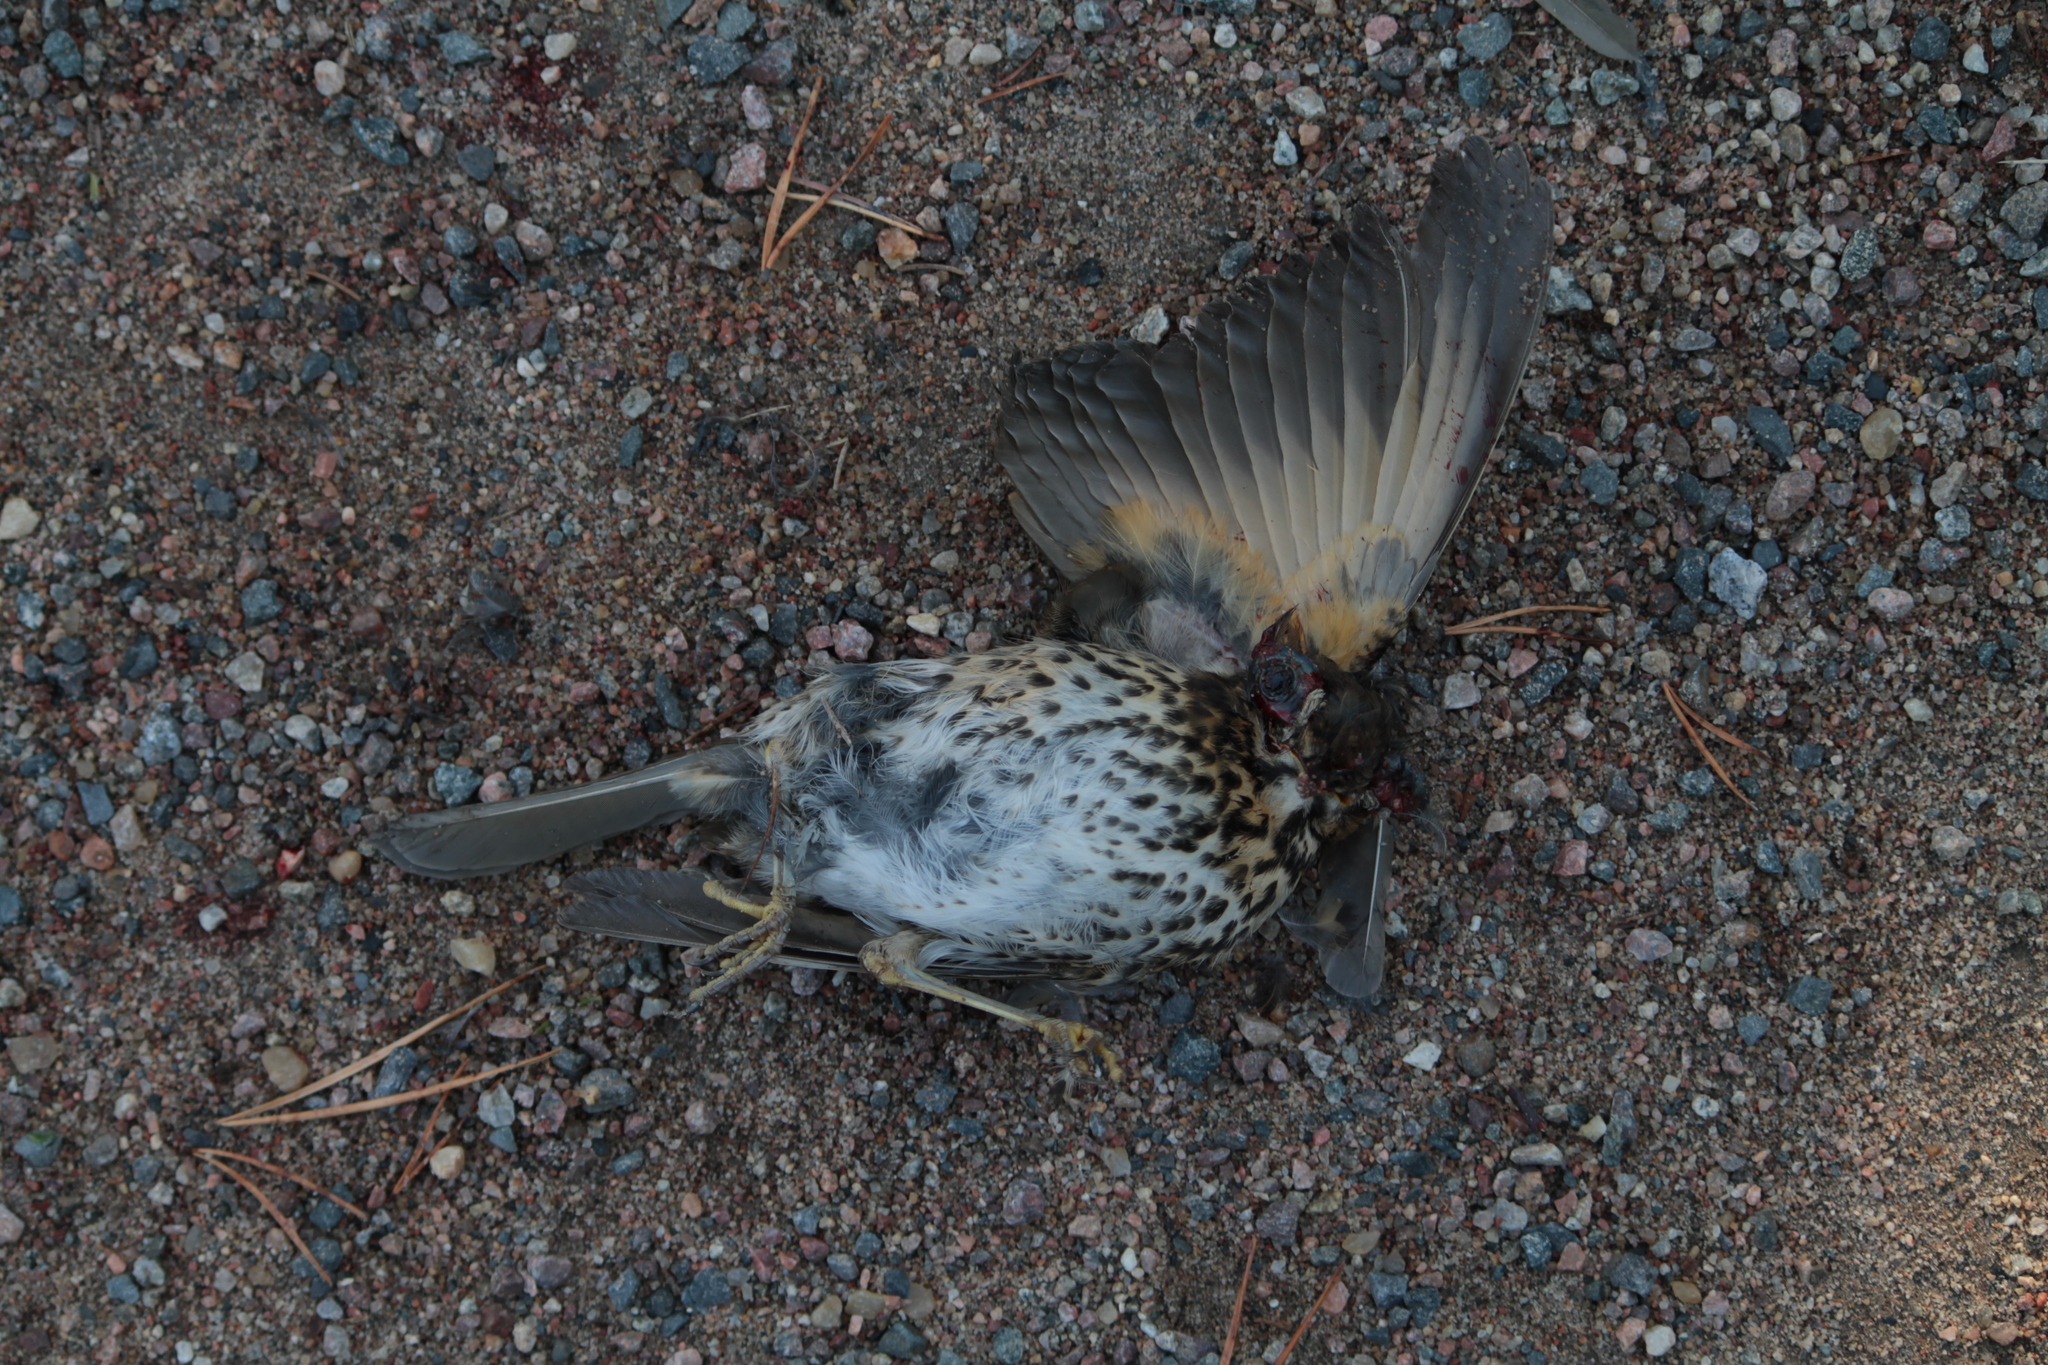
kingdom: Animalia
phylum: Chordata
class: Aves
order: Passeriformes
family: Turdidae
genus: Turdus
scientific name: Turdus philomelos
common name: Song thrush
